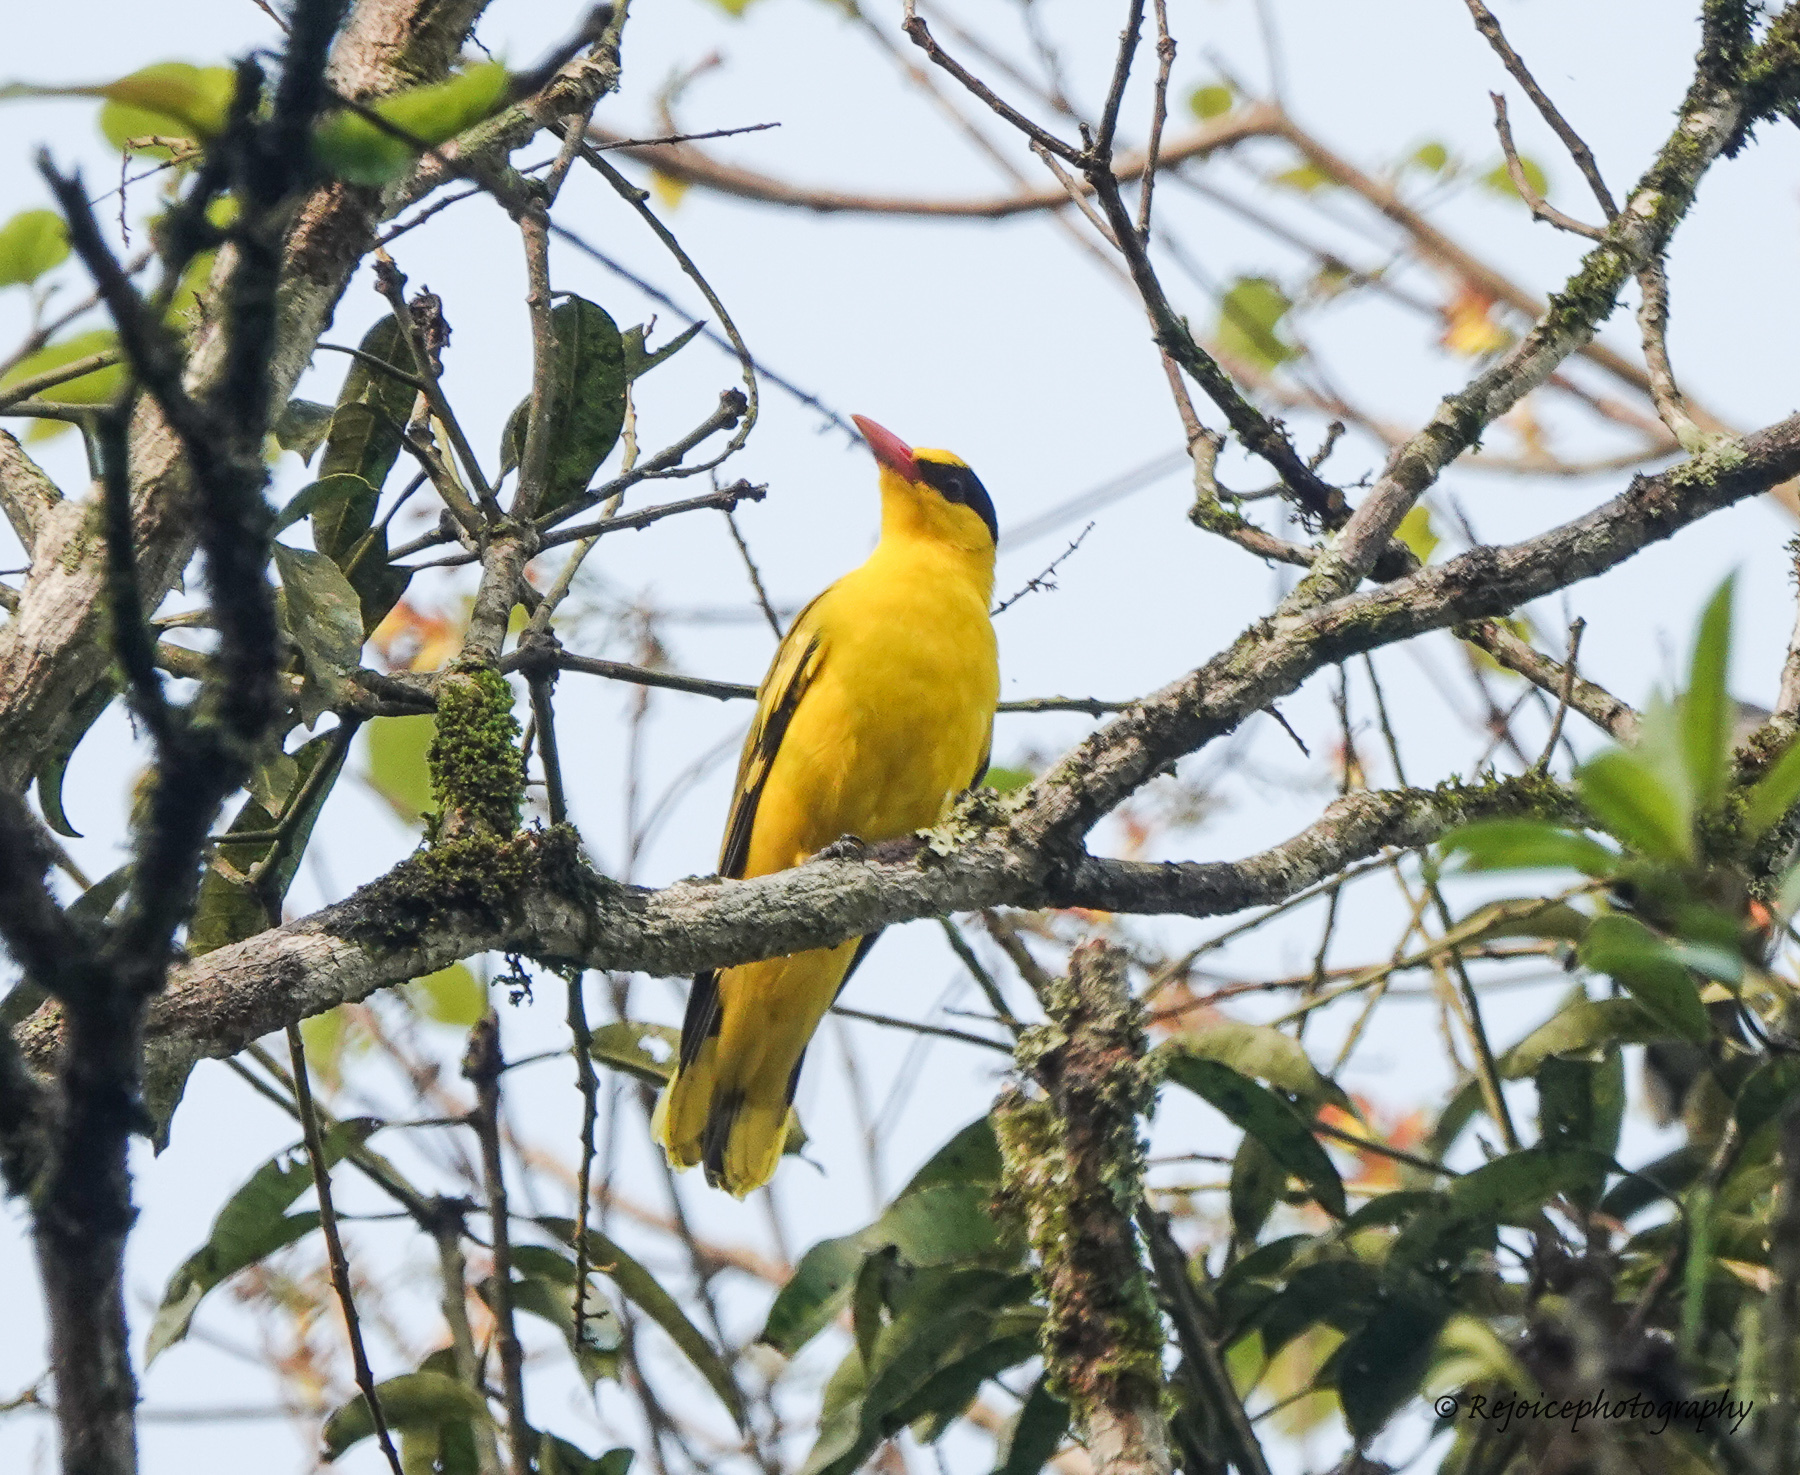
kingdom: Animalia
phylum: Chordata
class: Aves
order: Passeriformes
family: Oriolidae
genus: Oriolus
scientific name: Oriolus chinensis
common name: Black-naped oriole
